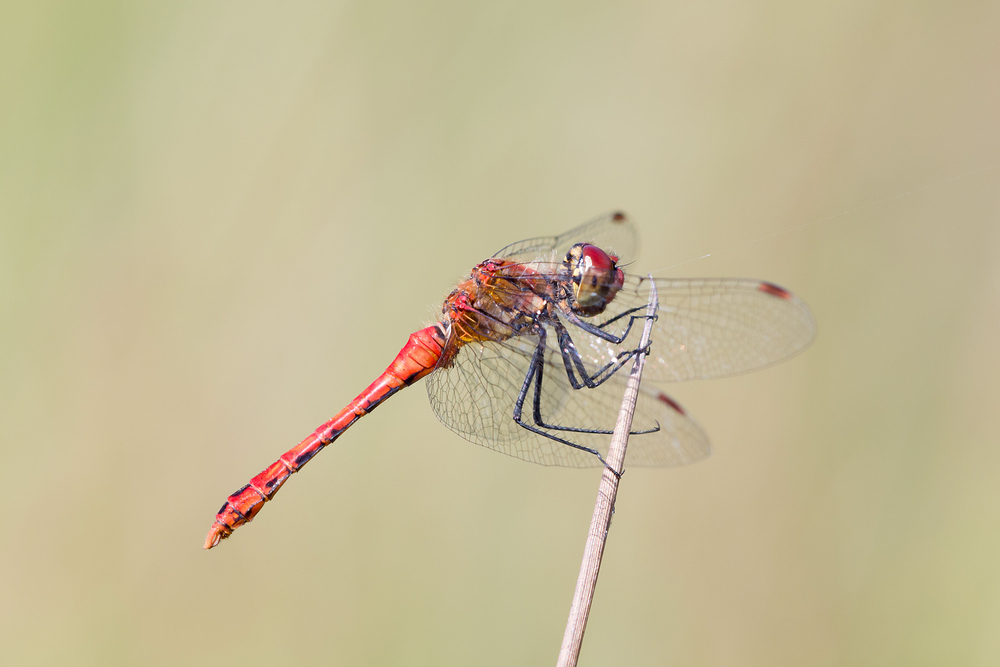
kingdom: Animalia
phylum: Arthropoda
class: Insecta
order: Odonata
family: Libellulidae
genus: Sympetrum
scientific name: Sympetrum sanguineum
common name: Ruddy darter
